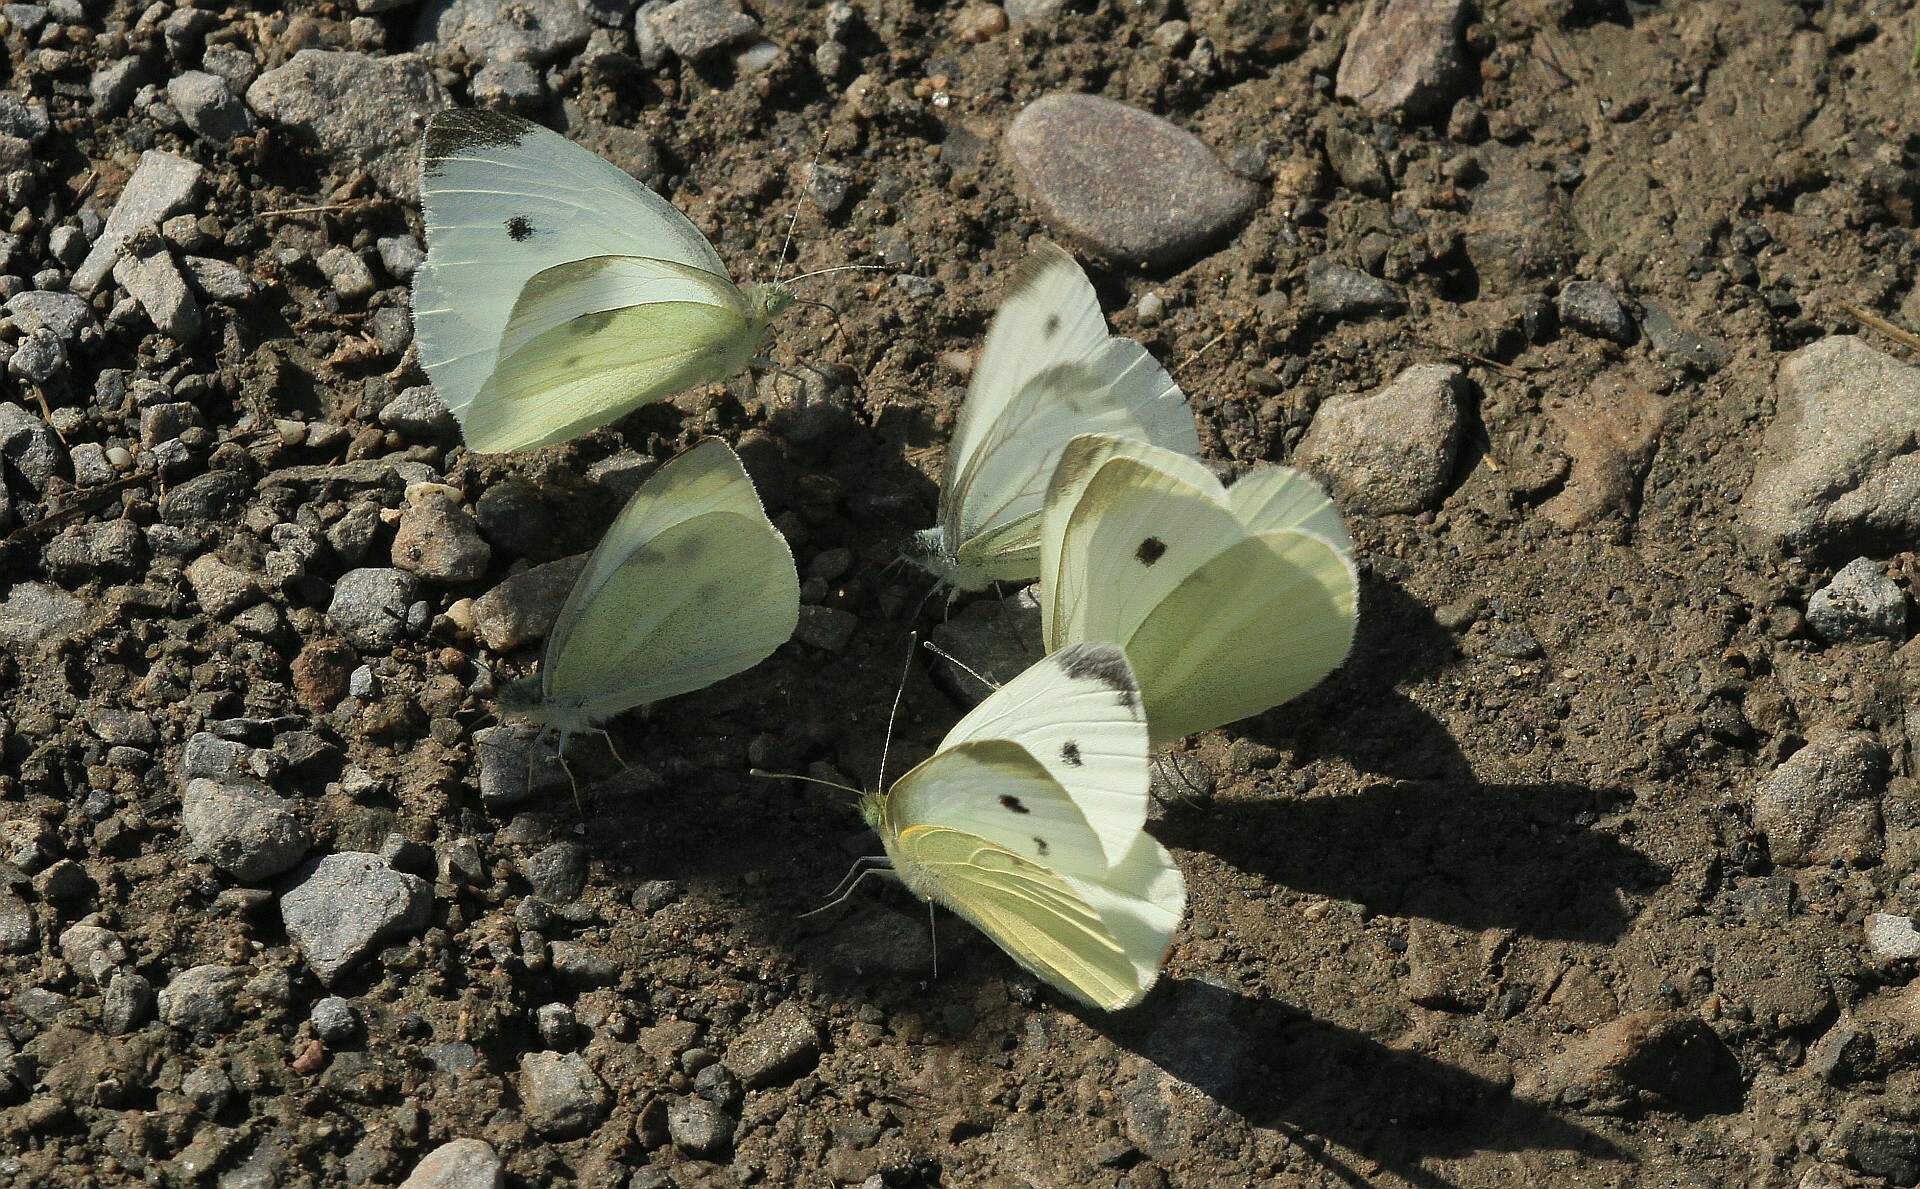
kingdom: Animalia
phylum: Arthropoda
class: Insecta
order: Lepidoptera
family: Pieridae
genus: Pieris
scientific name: Pieris rapae
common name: Small white
